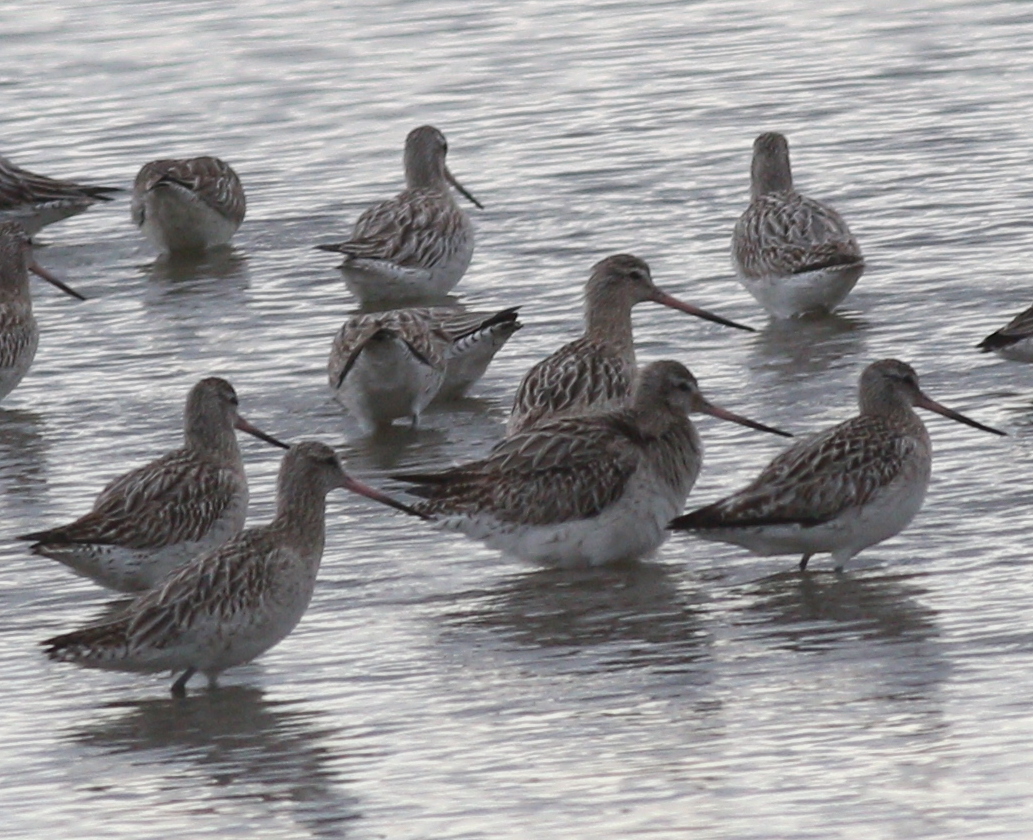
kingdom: Animalia
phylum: Chordata
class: Aves
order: Charadriiformes
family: Scolopacidae
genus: Limosa
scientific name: Limosa lapponica
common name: Bar-tailed godwit
